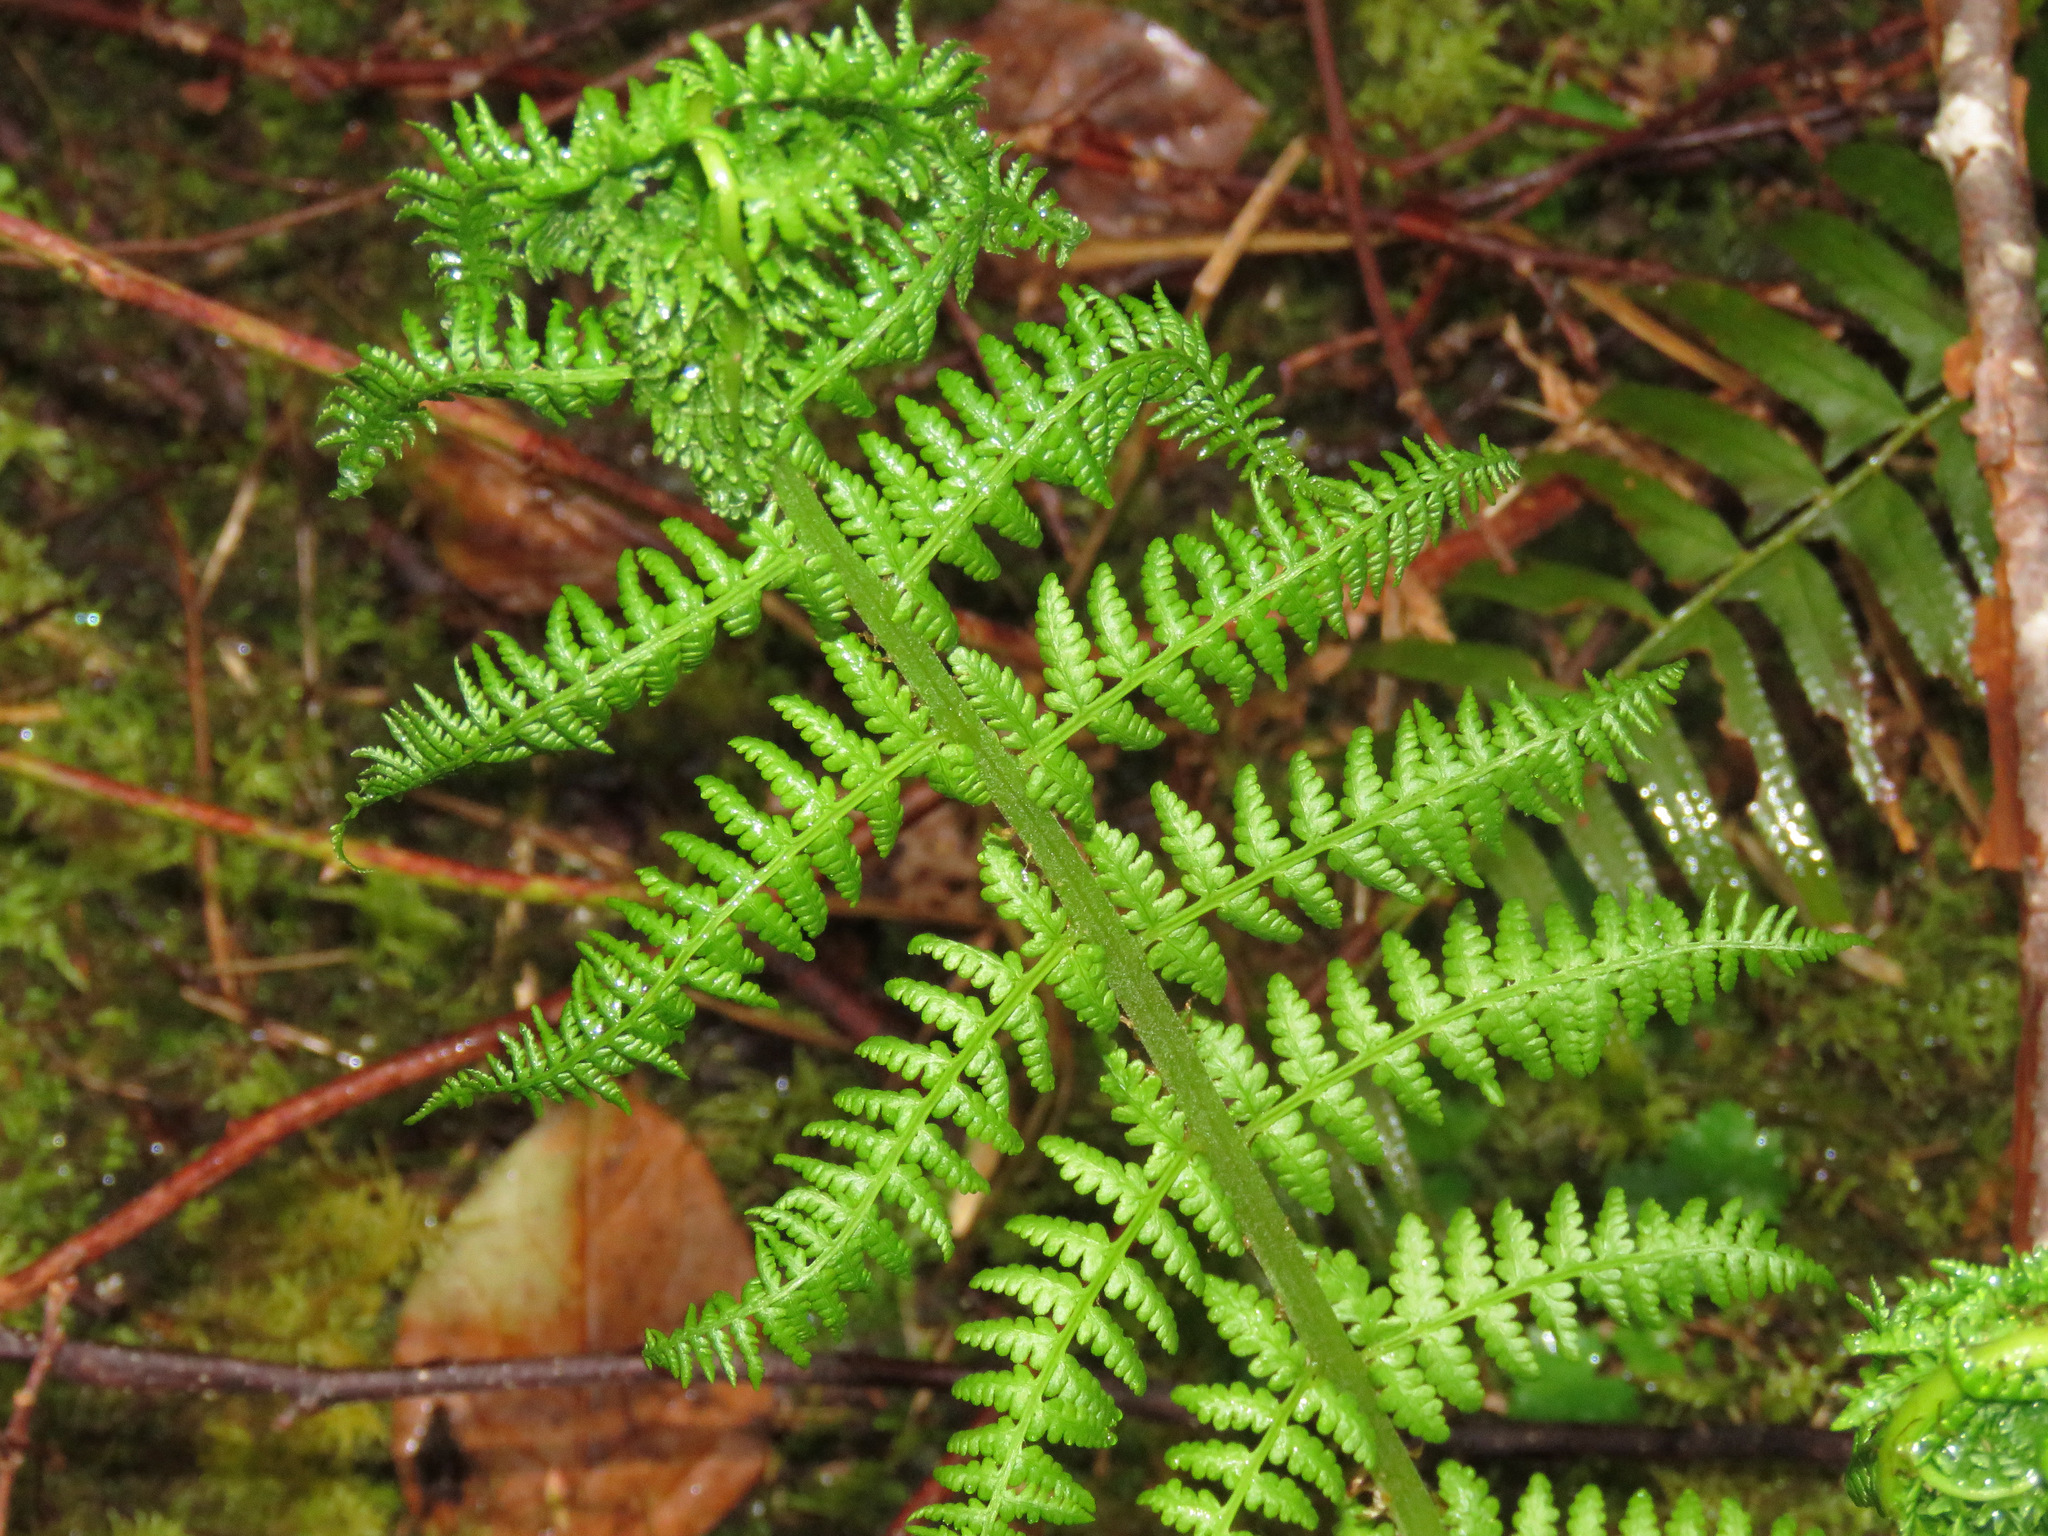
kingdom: Plantae
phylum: Tracheophyta
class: Polypodiopsida
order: Polypodiales
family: Athyriaceae
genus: Athyrium
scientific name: Athyrium filix-femina
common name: Lady fern
